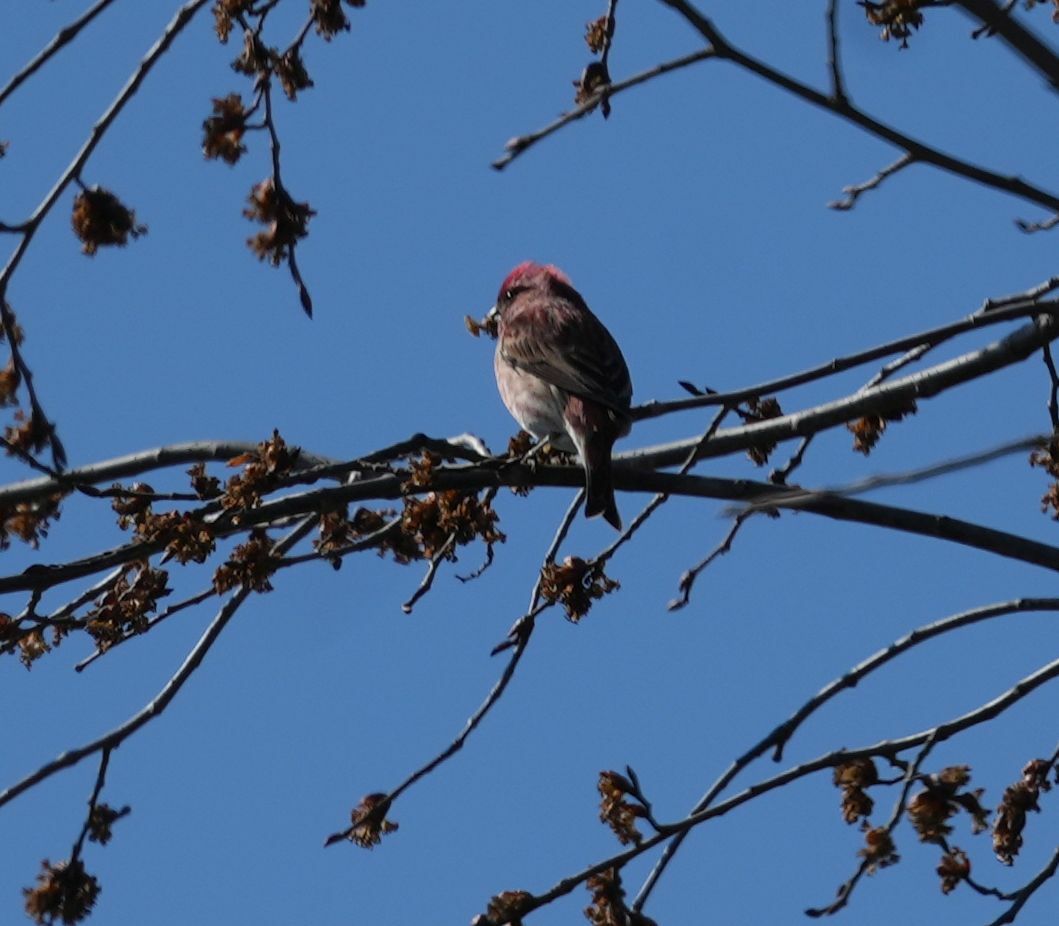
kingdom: Animalia
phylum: Chordata
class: Aves
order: Passeriformes
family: Fringillidae
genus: Haemorhous
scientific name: Haemorhous purpureus
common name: Purple finch
